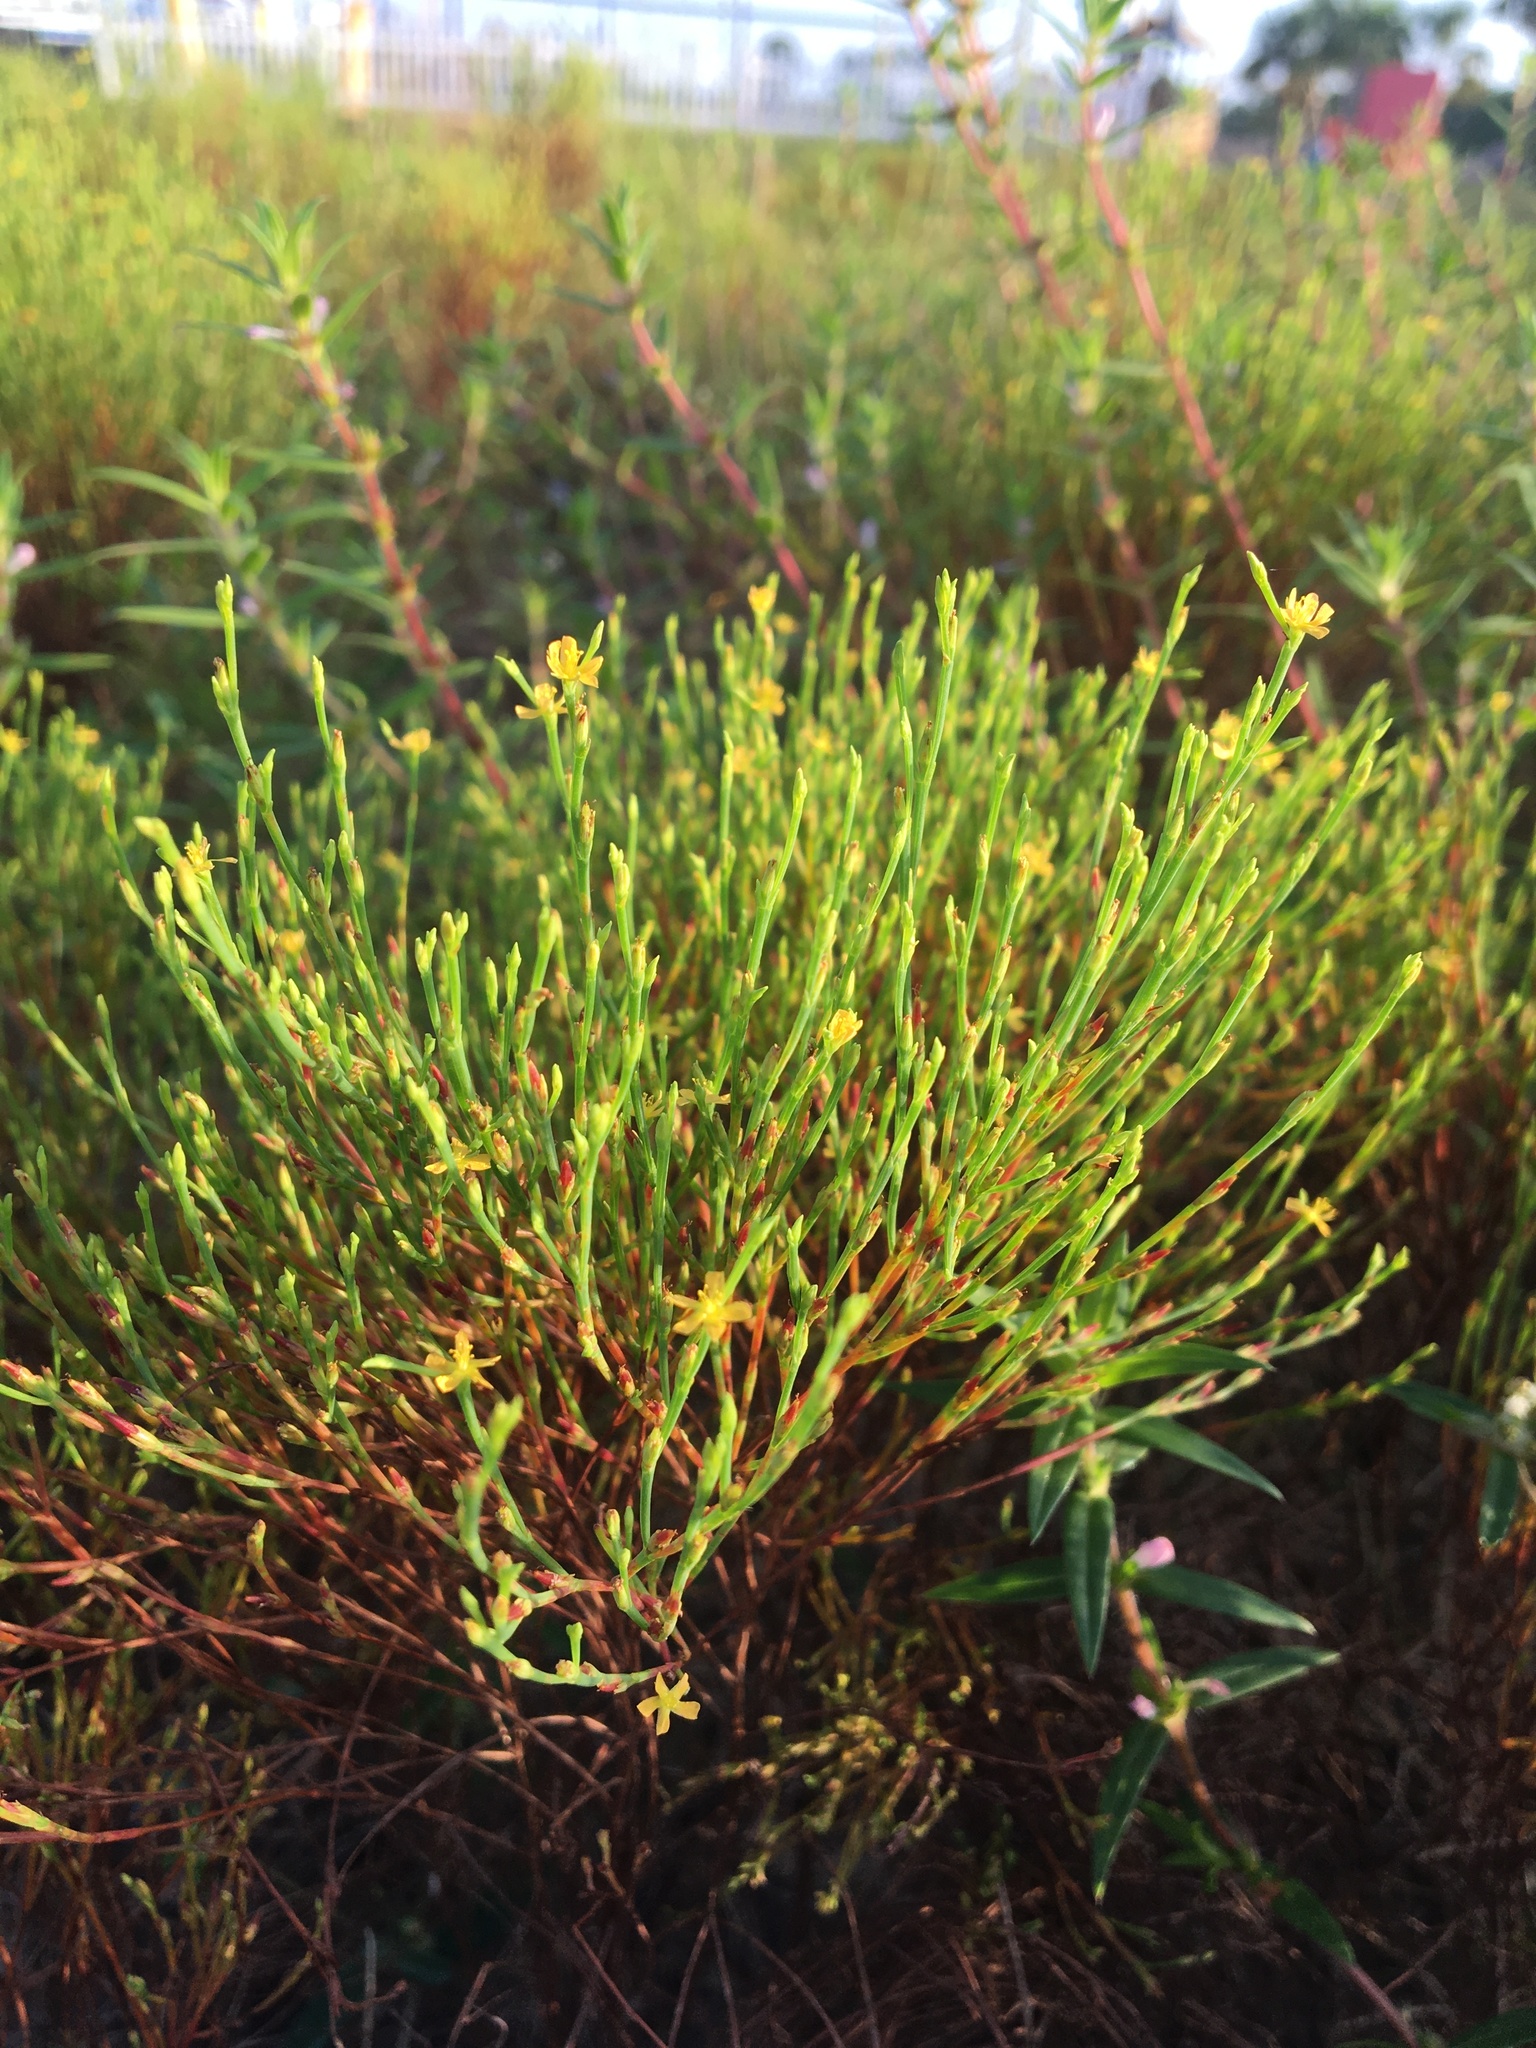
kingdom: Plantae
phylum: Tracheophyta
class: Magnoliopsida
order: Malpighiales
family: Hypericaceae
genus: Hypericum
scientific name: Hypericum gentianoides
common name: Gentian-leaved st. john's-wort
